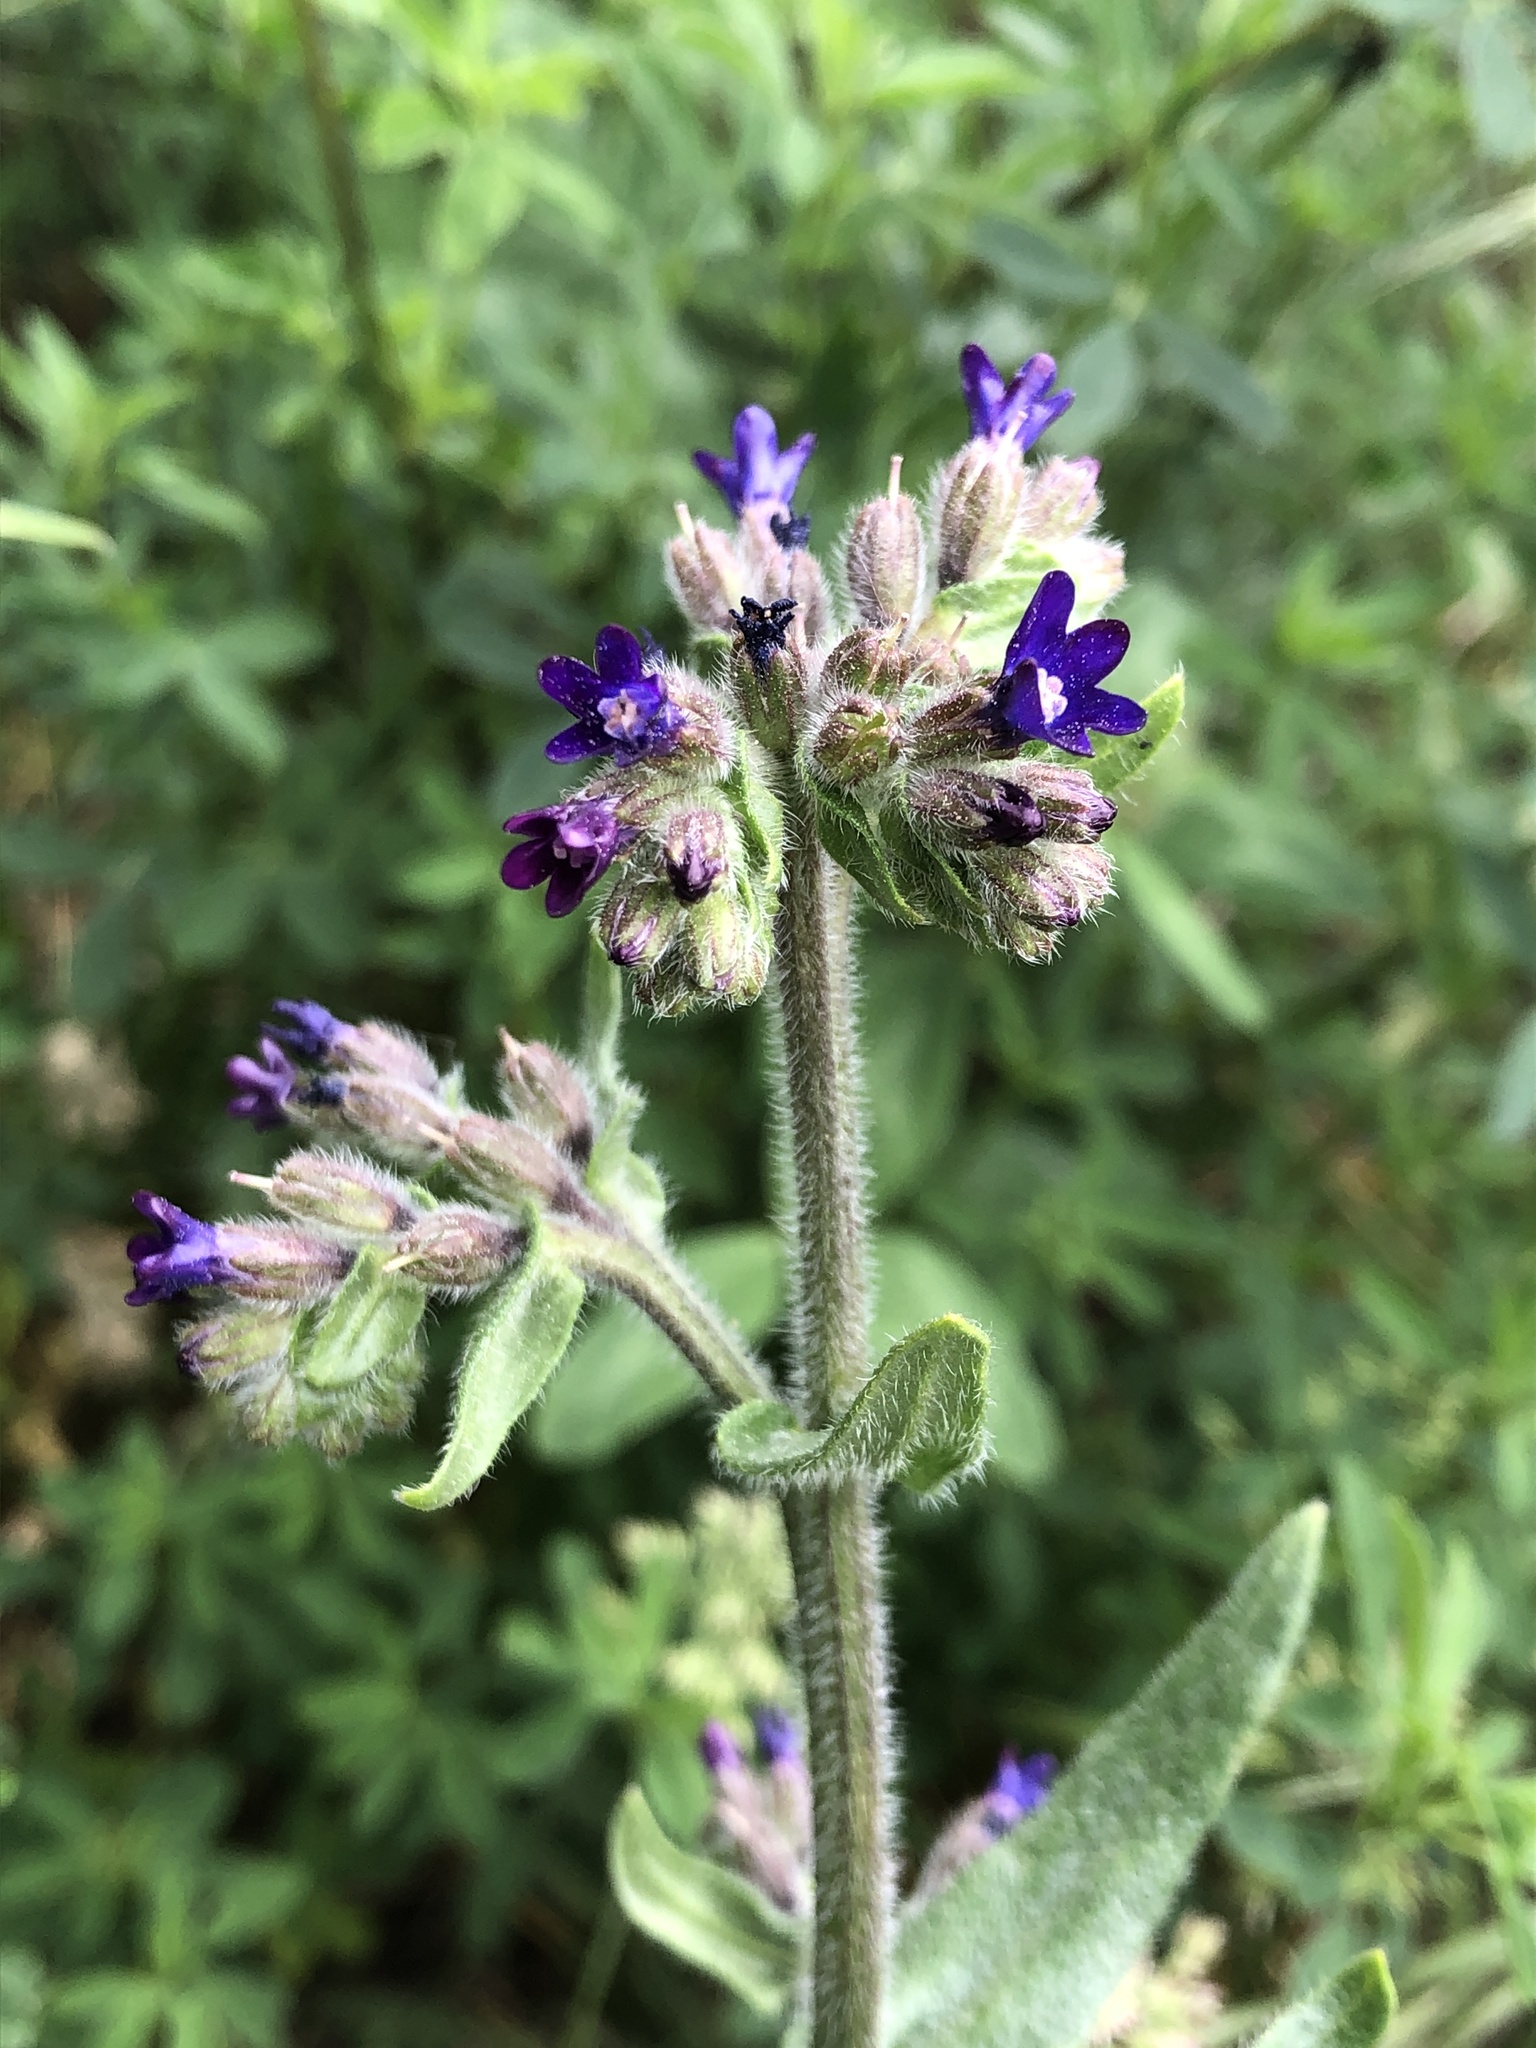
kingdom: Plantae
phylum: Tracheophyta
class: Magnoliopsida
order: Boraginales
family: Boraginaceae
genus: Anchusa
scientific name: Anchusa officinalis
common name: Alkanet
